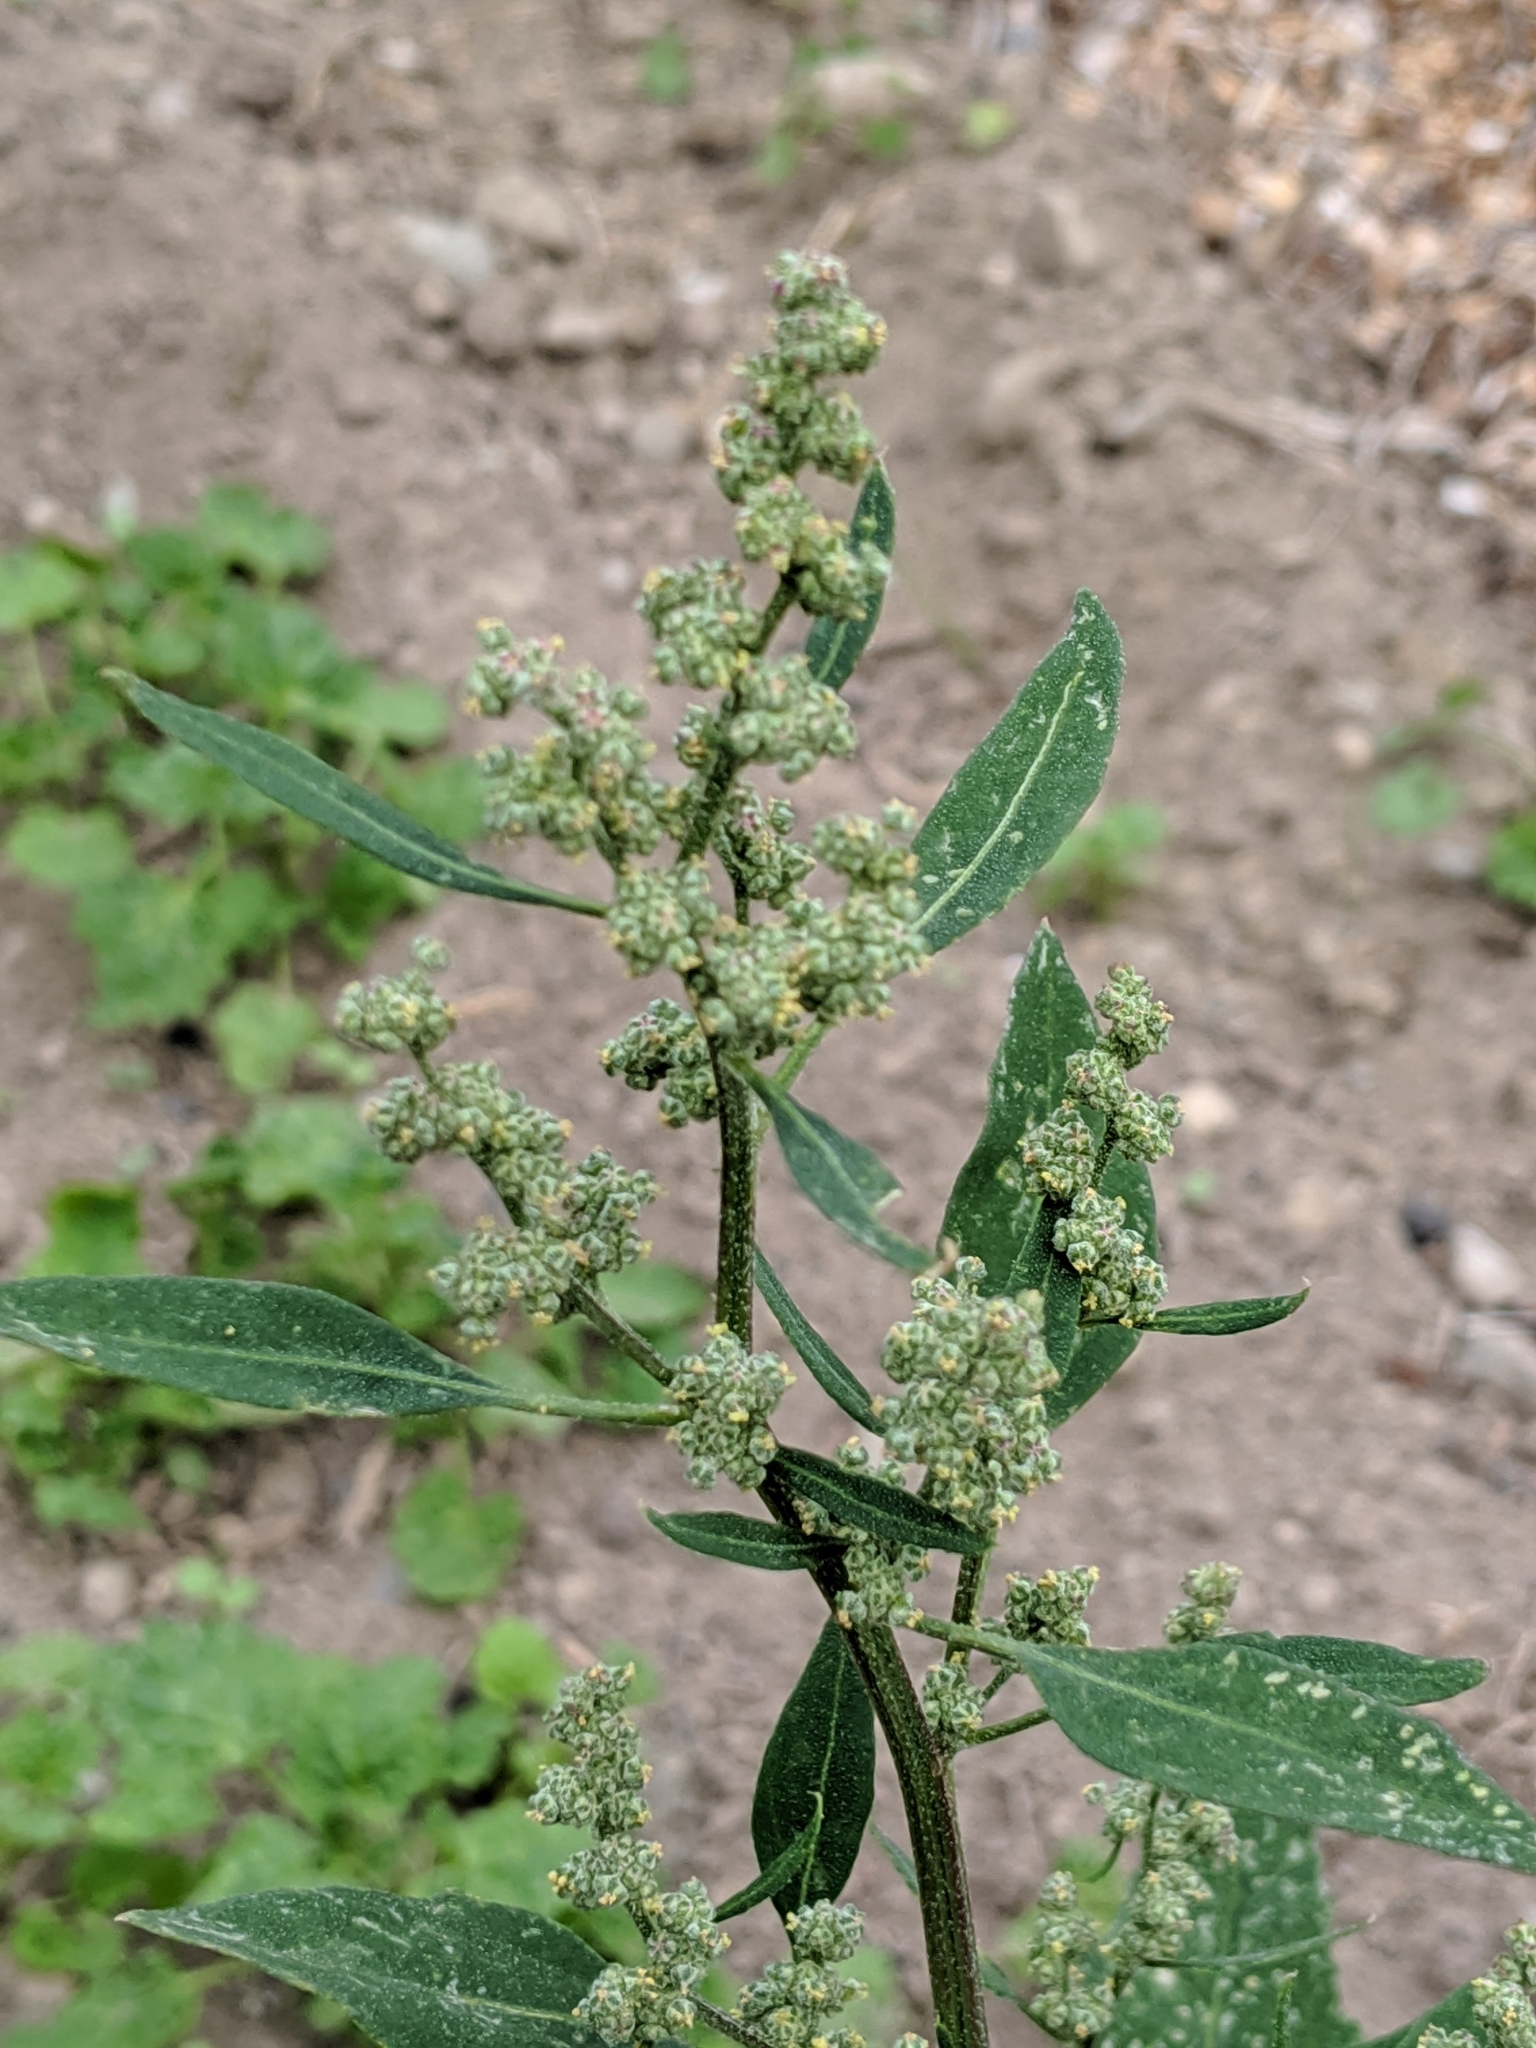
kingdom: Plantae
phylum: Tracheophyta
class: Magnoliopsida
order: Caryophyllales
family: Amaranthaceae
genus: Chenopodium
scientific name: Chenopodium album
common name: Fat-hen
